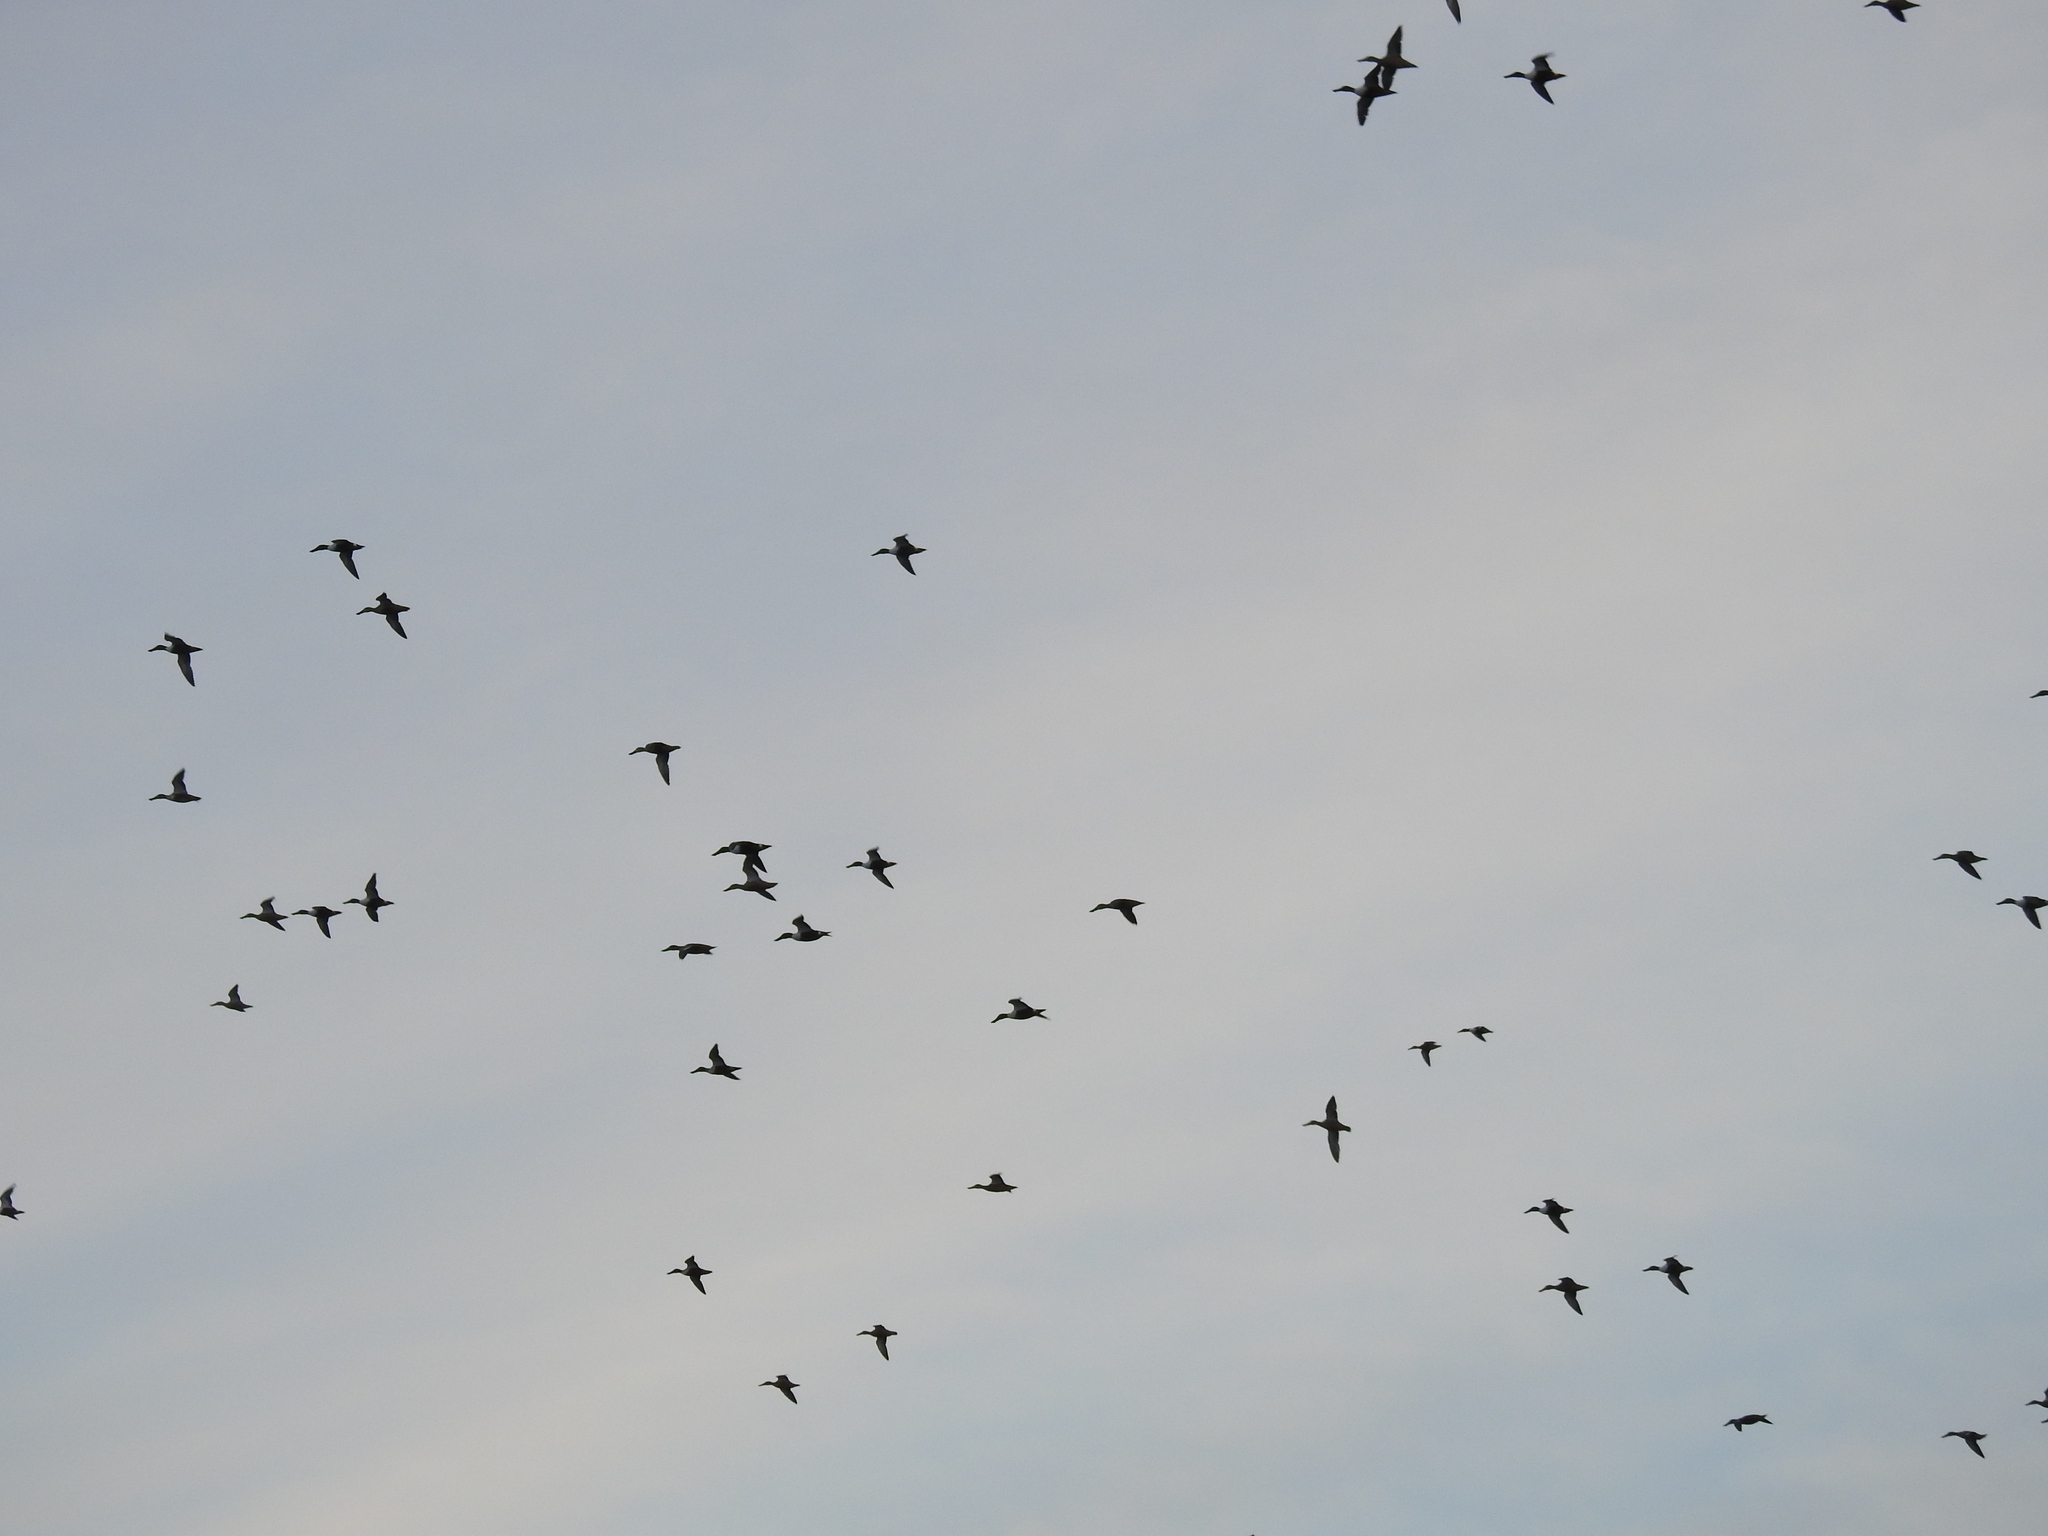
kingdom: Animalia
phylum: Chordata
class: Aves
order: Anseriformes
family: Anatidae
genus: Spatula
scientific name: Spatula clypeata
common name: Northern shoveler
